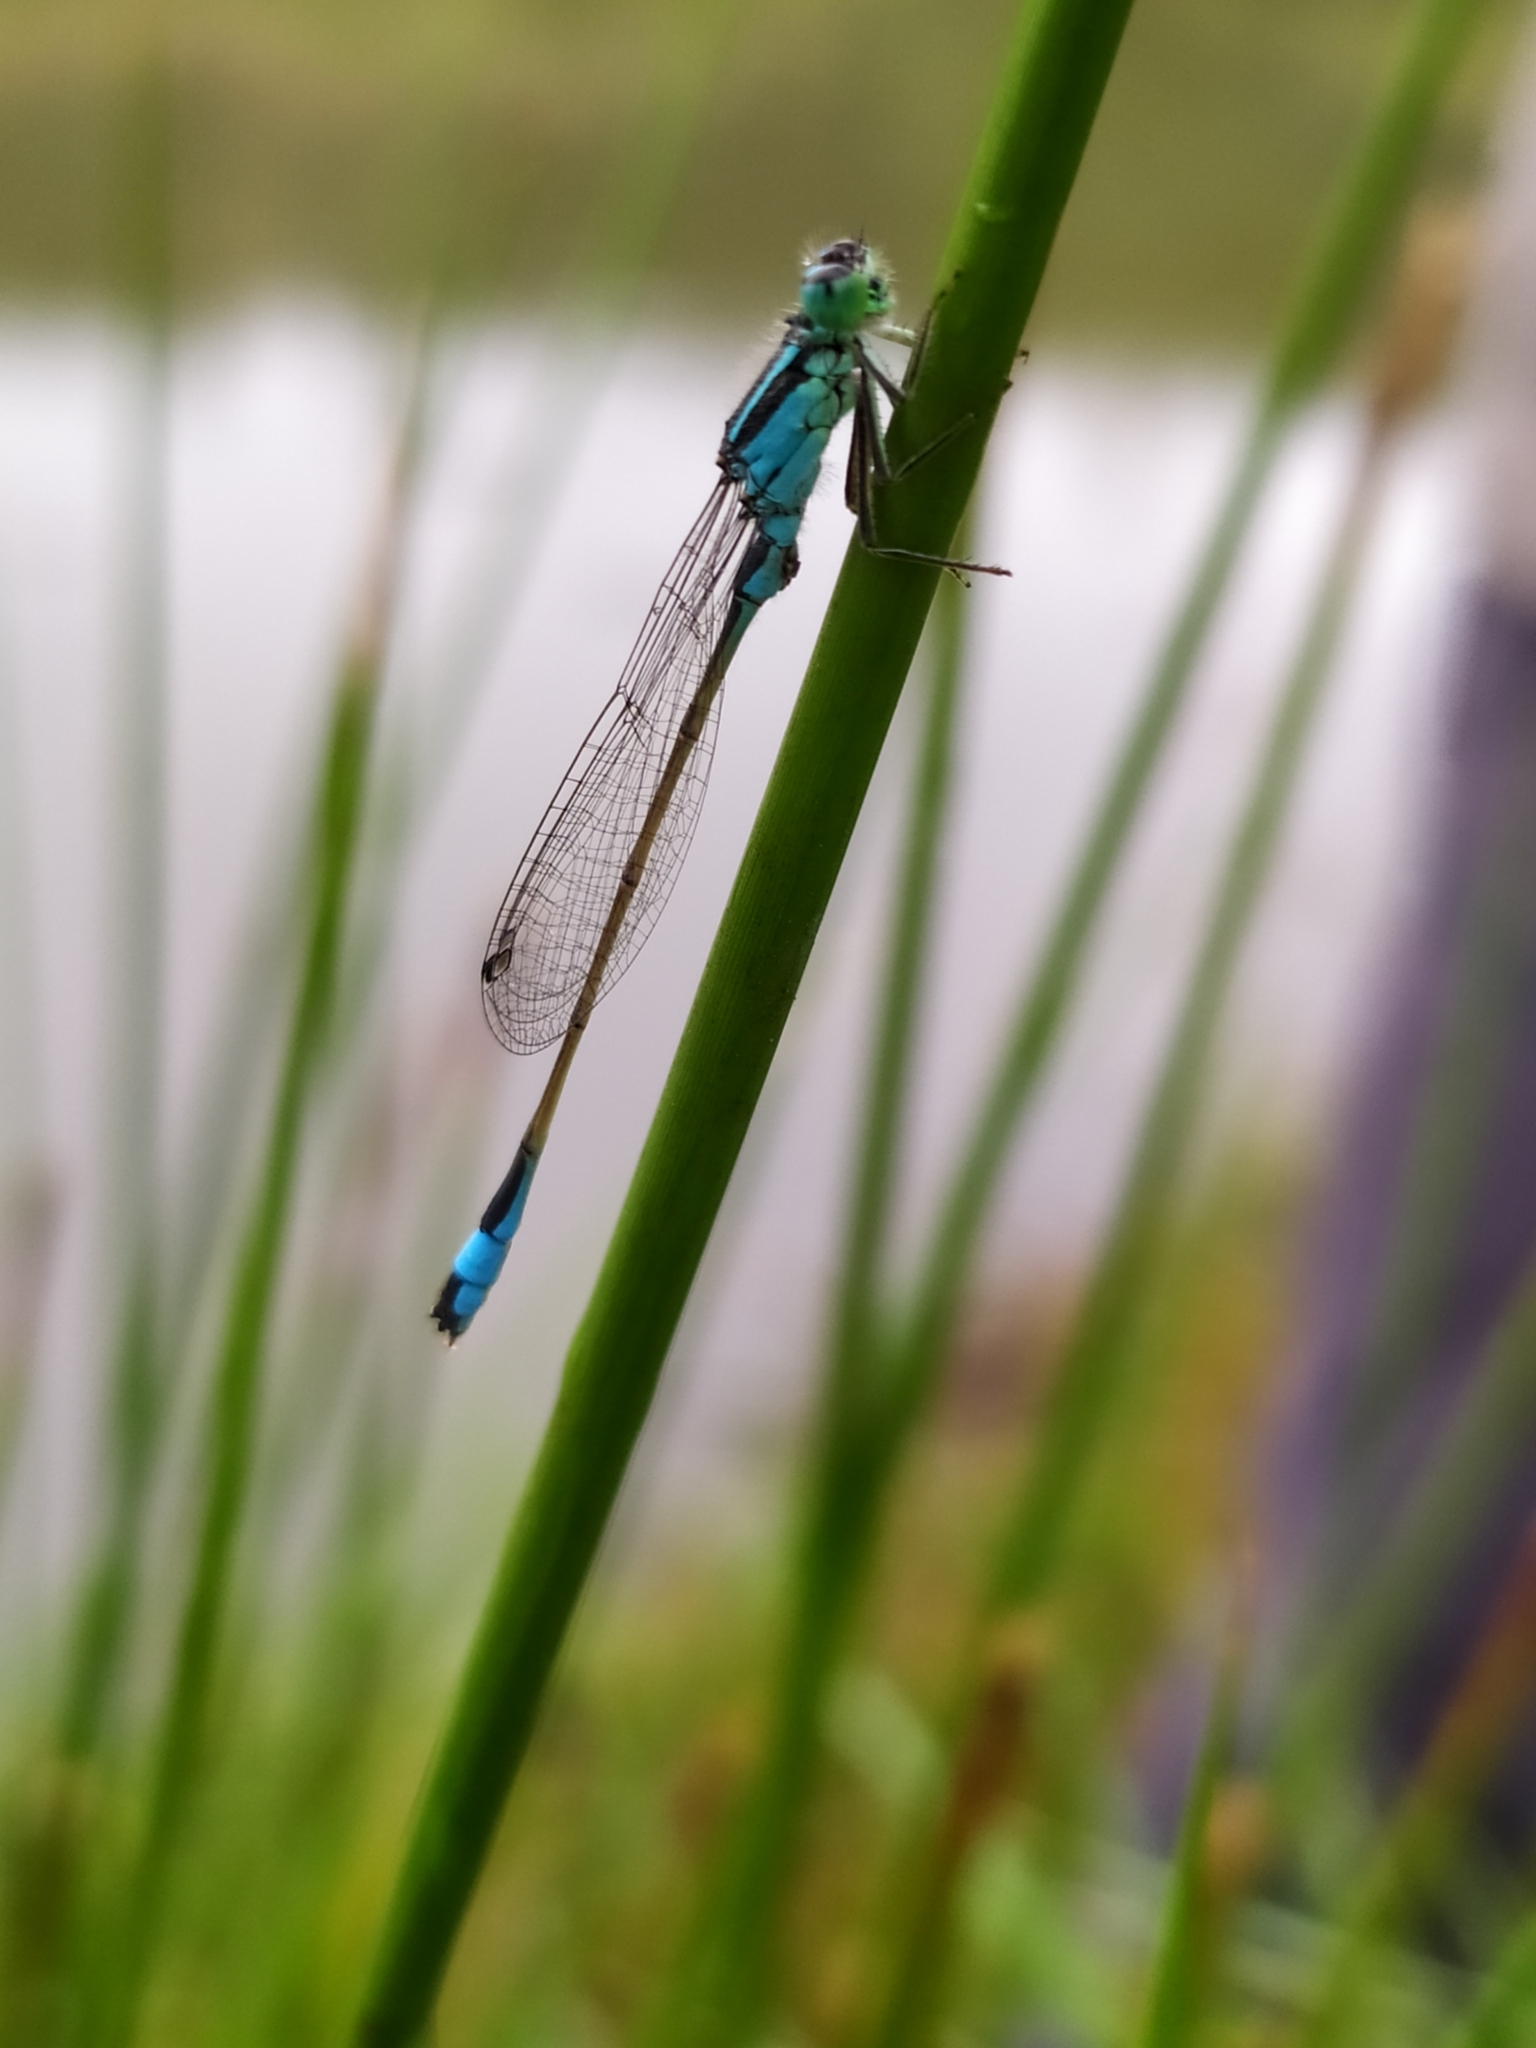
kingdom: Animalia
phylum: Arthropoda
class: Insecta
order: Odonata
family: Coenagrionidae
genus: Ischnura
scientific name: Ischnura elegans
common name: Blue-tailed damselfly
